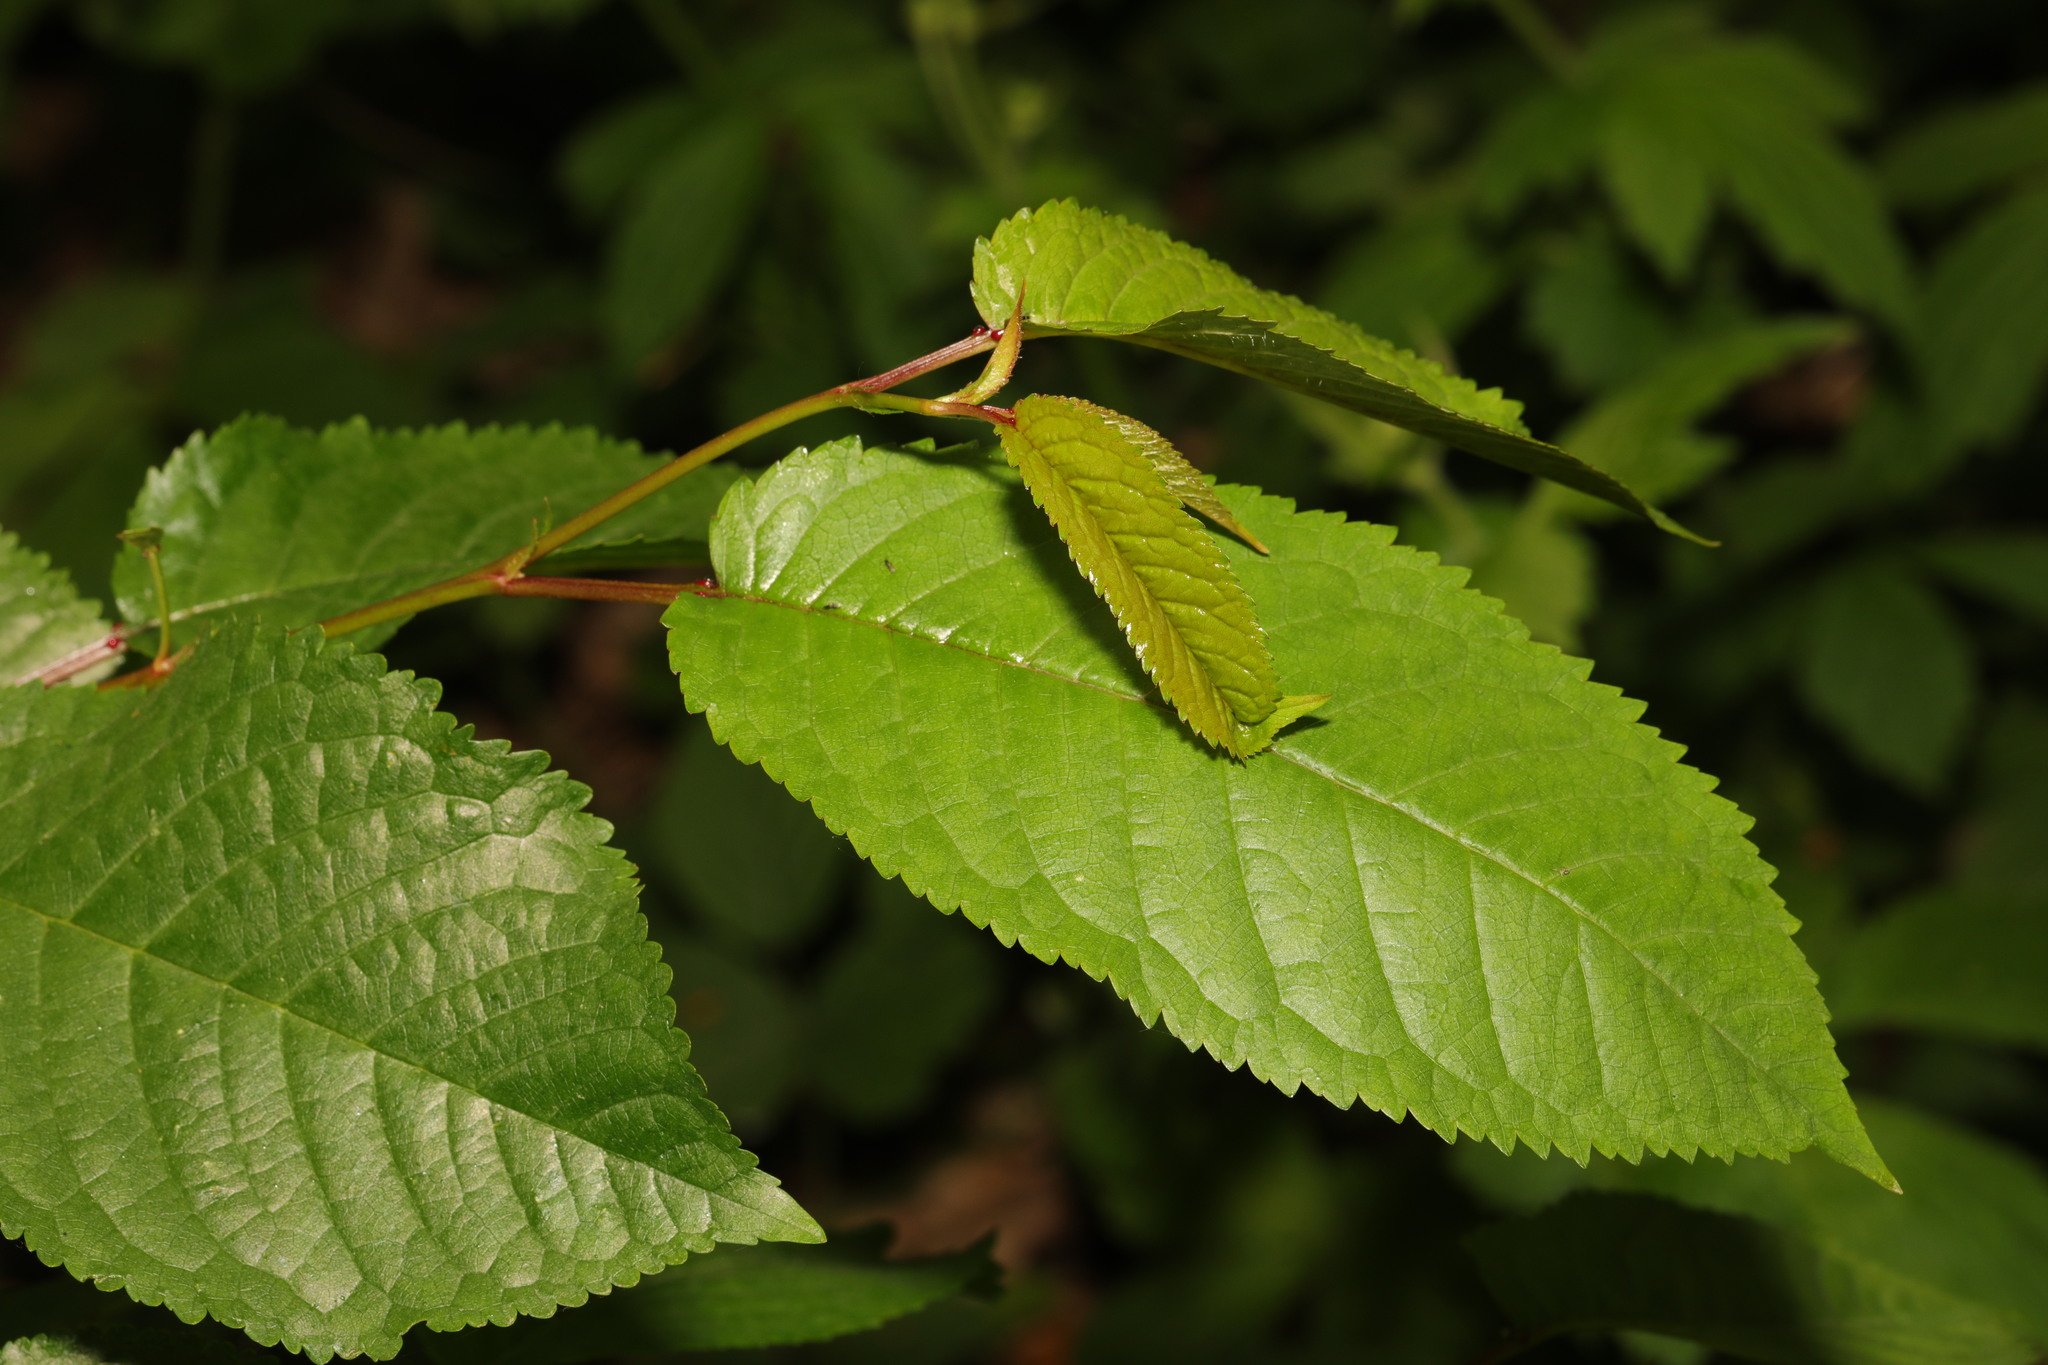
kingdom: Plantae
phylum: Tracheophyta
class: Magnoliopsida
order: Rosales
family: Rosaceae
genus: Prunus
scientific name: Prunus avium
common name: Sweet cherry
